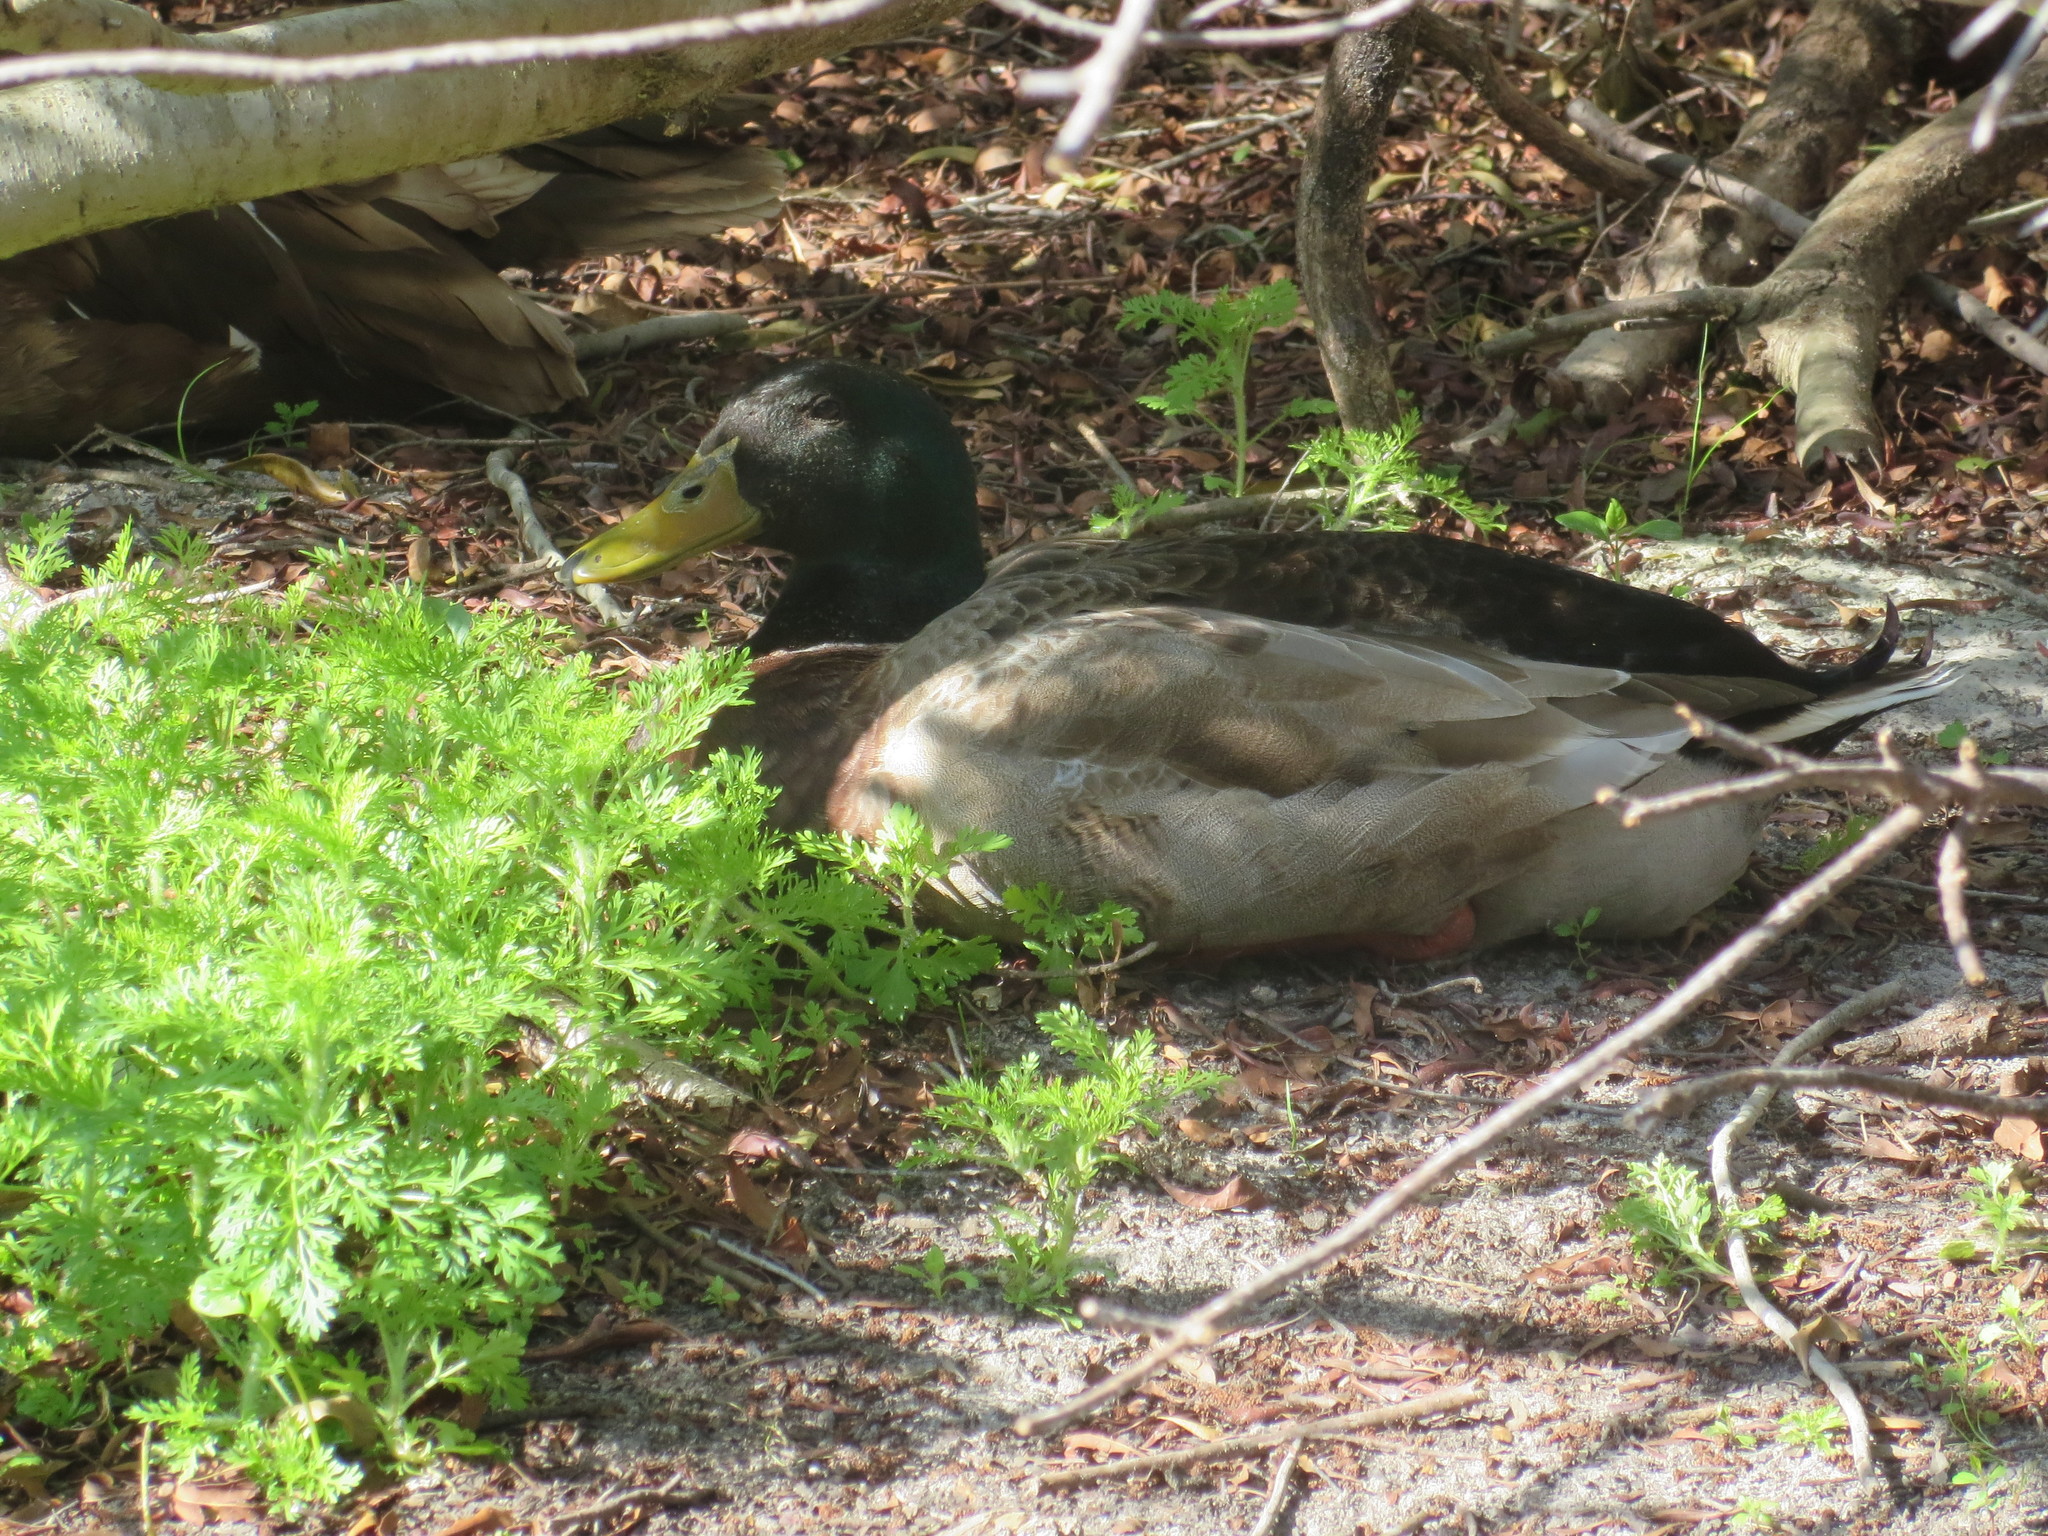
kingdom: Animalia
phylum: Chordata
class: Aves
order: Anseriformes
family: Anatidae
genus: Anas
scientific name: Anas platyrhynchos
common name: Mallard
